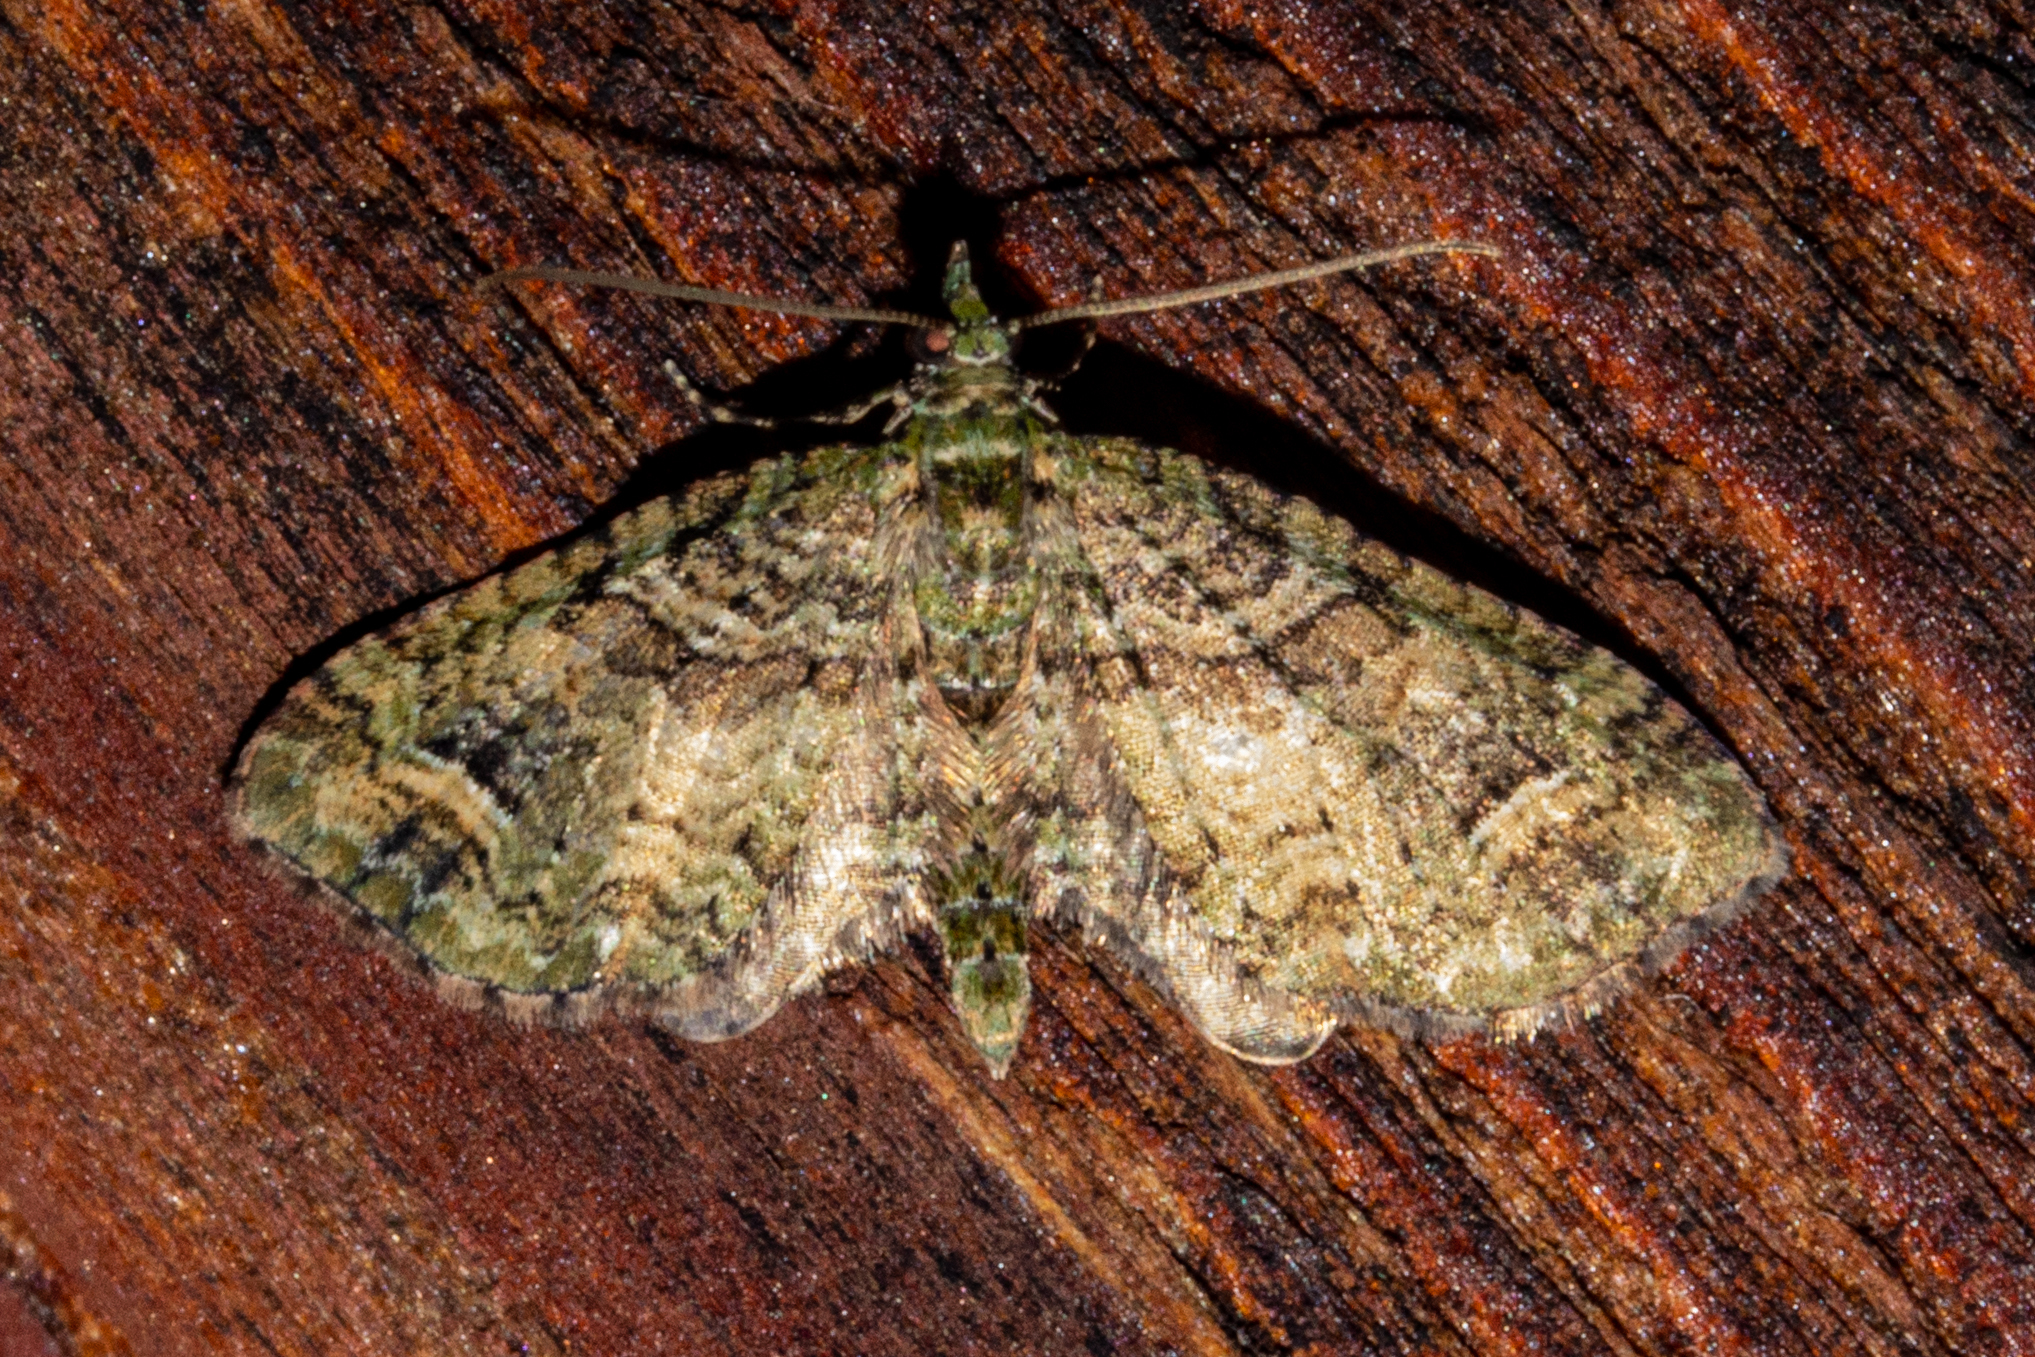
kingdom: Animalia
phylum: Arthropoda
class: Insecta
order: Lepidoptera
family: Geometridae
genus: Idaea
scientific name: Idaea mutanda
